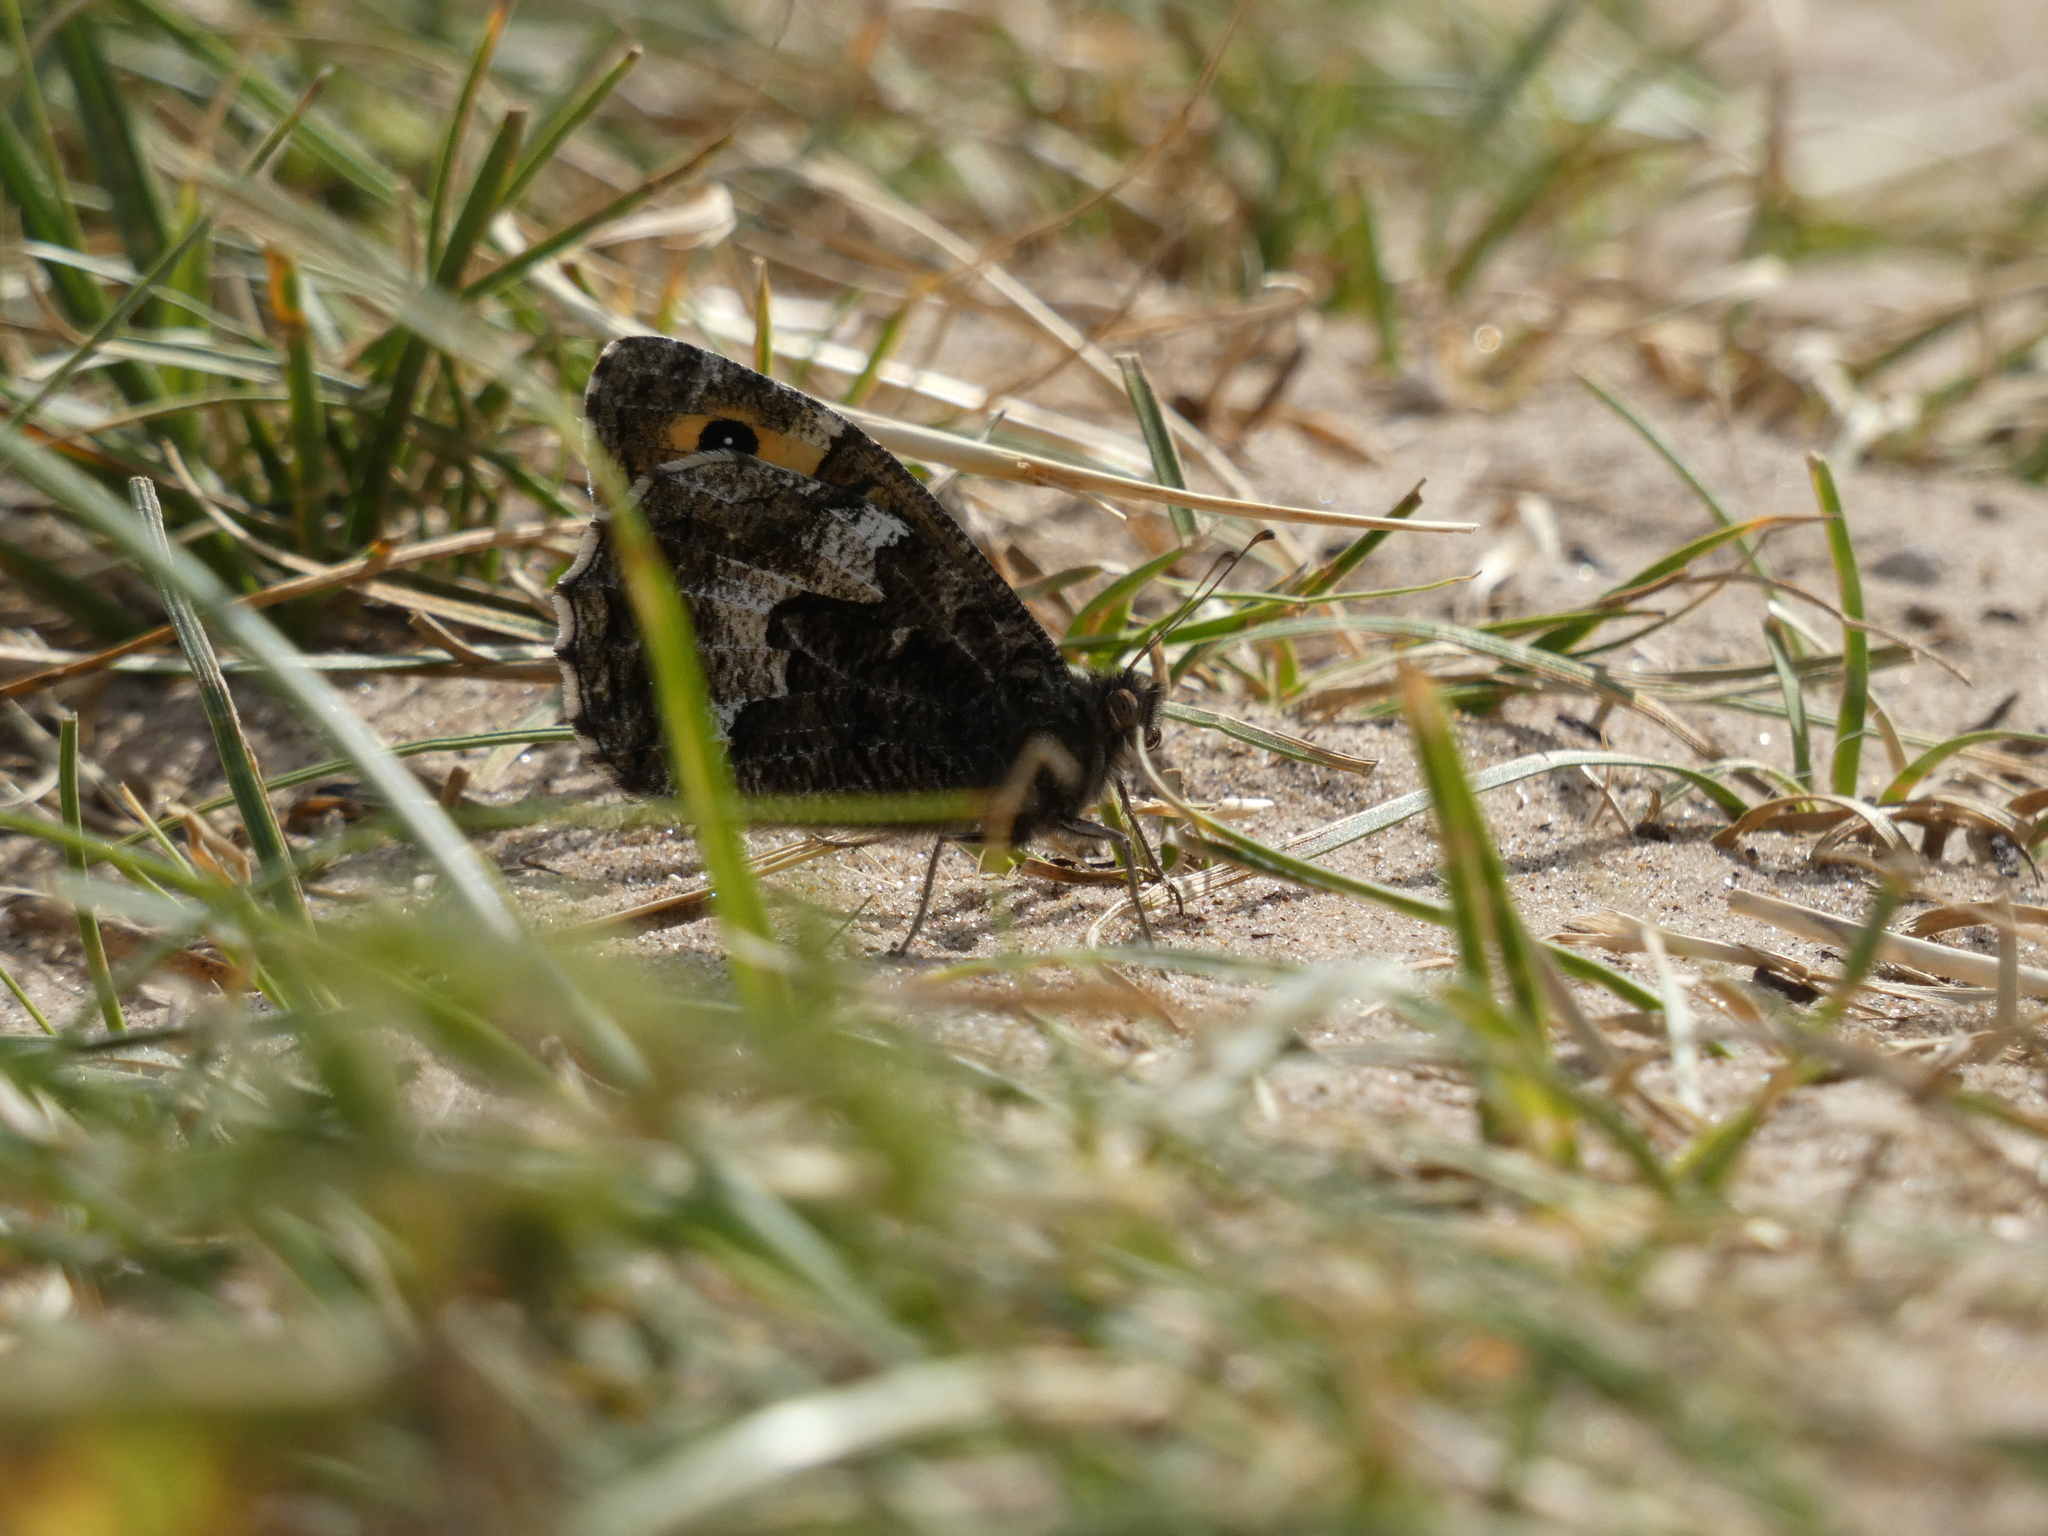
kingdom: Animalia
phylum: Arthropoda
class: Insecta
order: Lepidoptera
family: Nymphalidae
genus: Hipparchia
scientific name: Hipparchia semele
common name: Grayling
